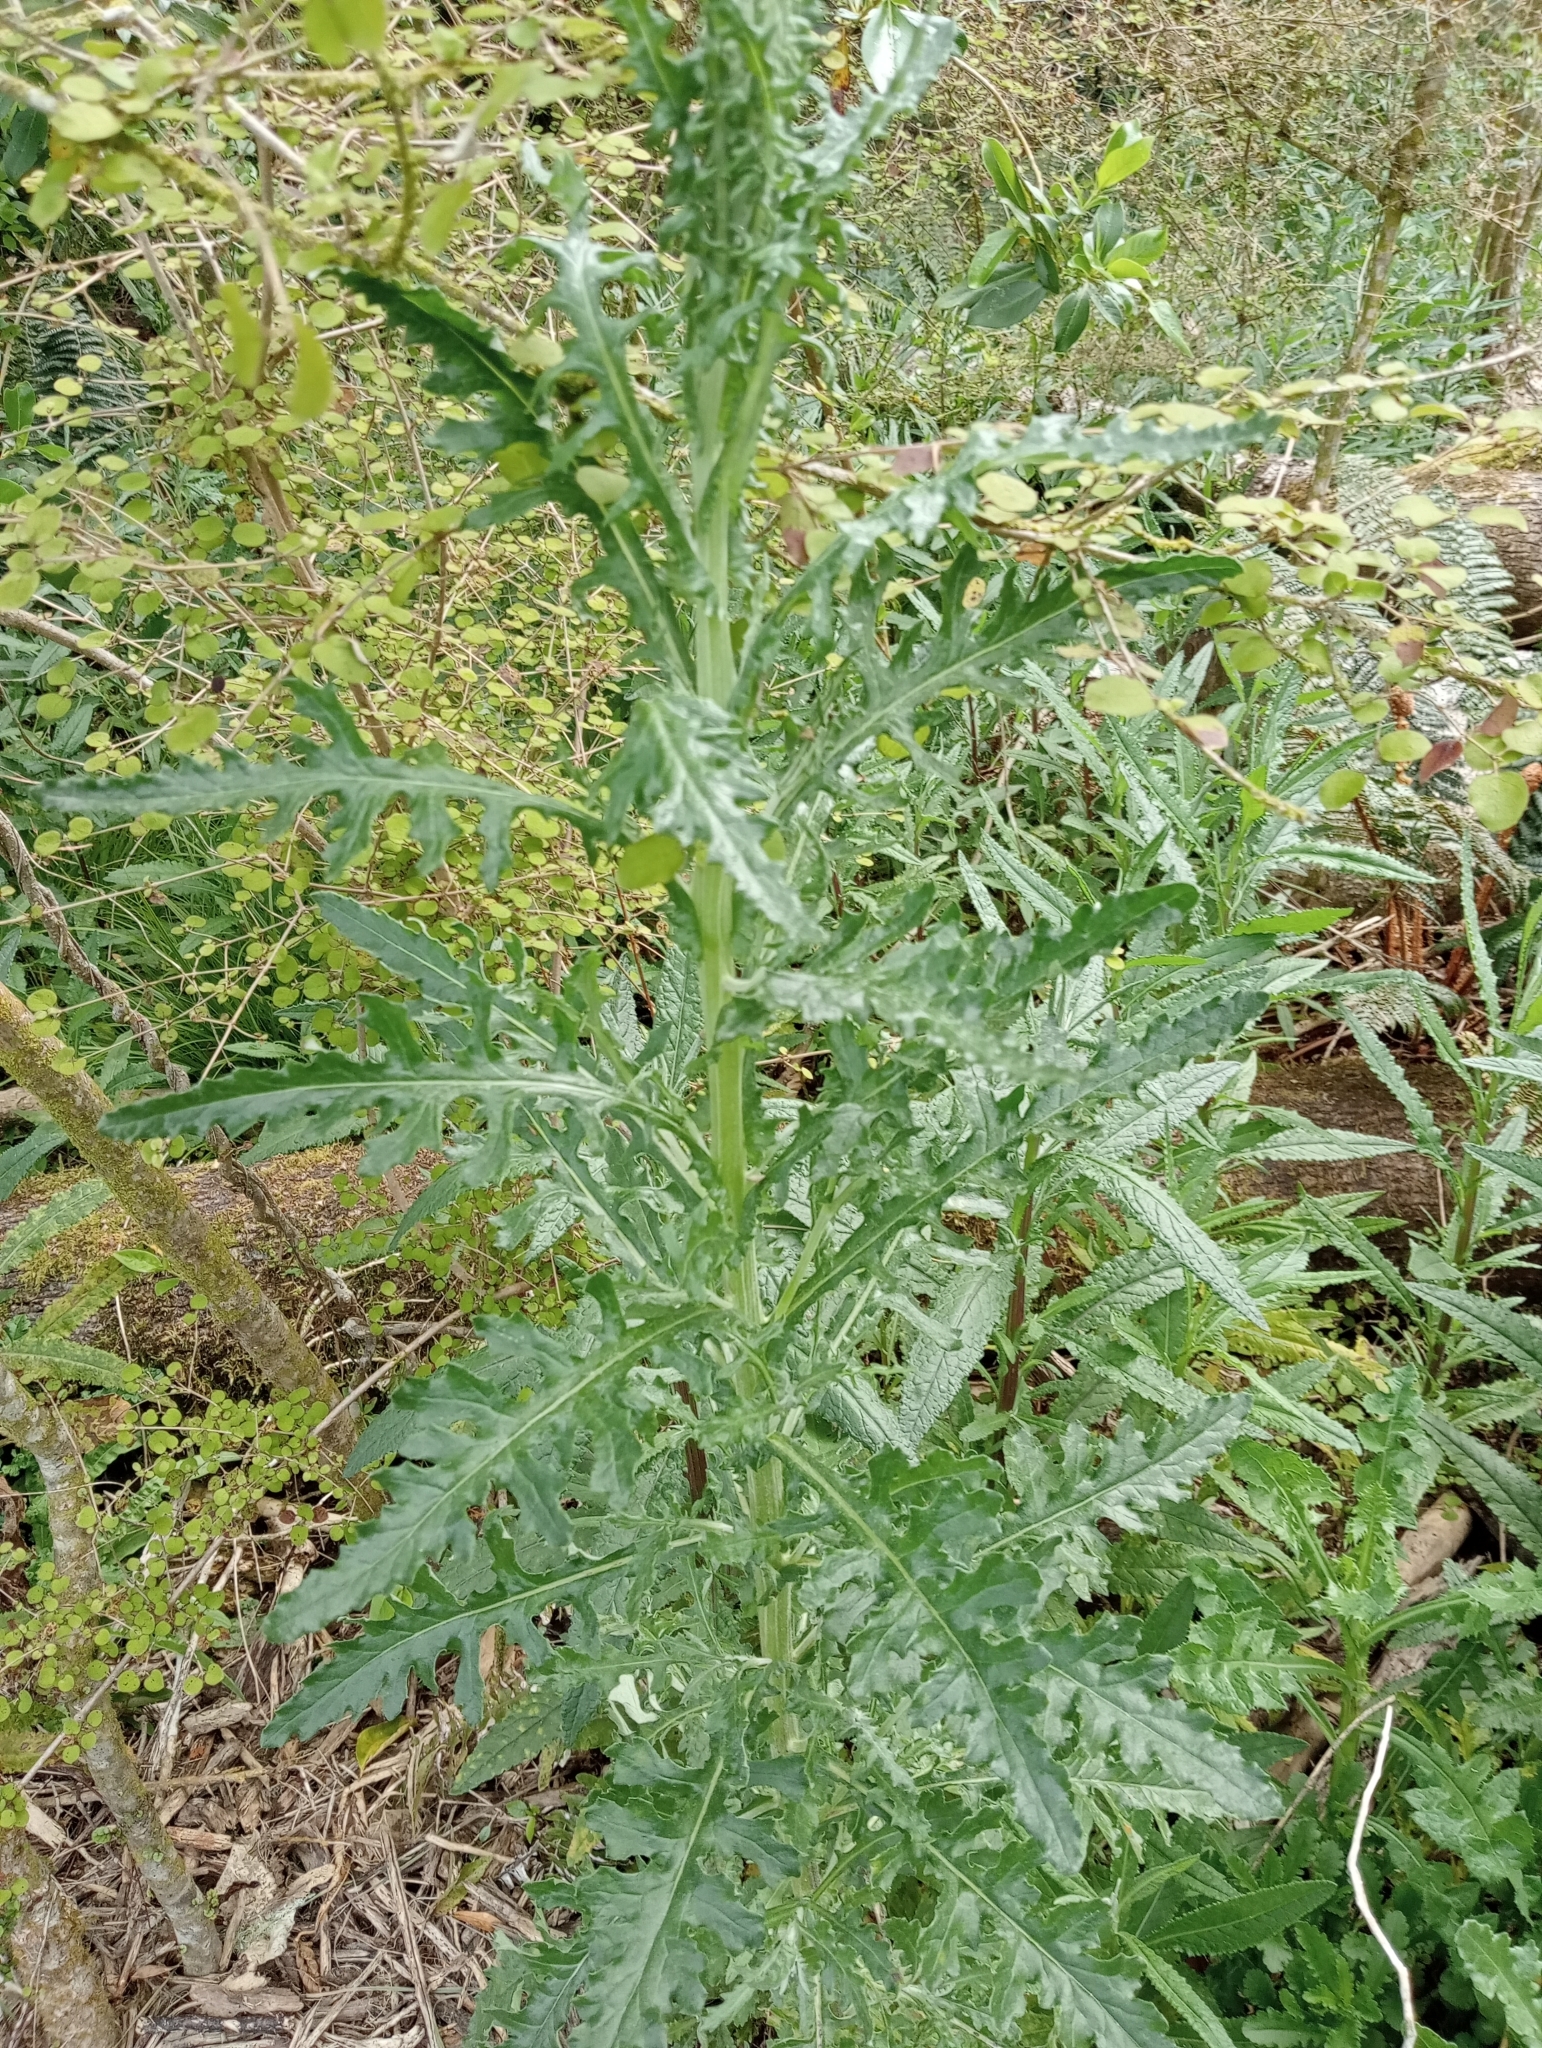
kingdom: Plantae
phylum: Tracheophyta
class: Magnoliopsida
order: Asterales
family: Asteraceae
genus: Senecio
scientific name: Senecio glomeratus
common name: Cutleaf burnweed
